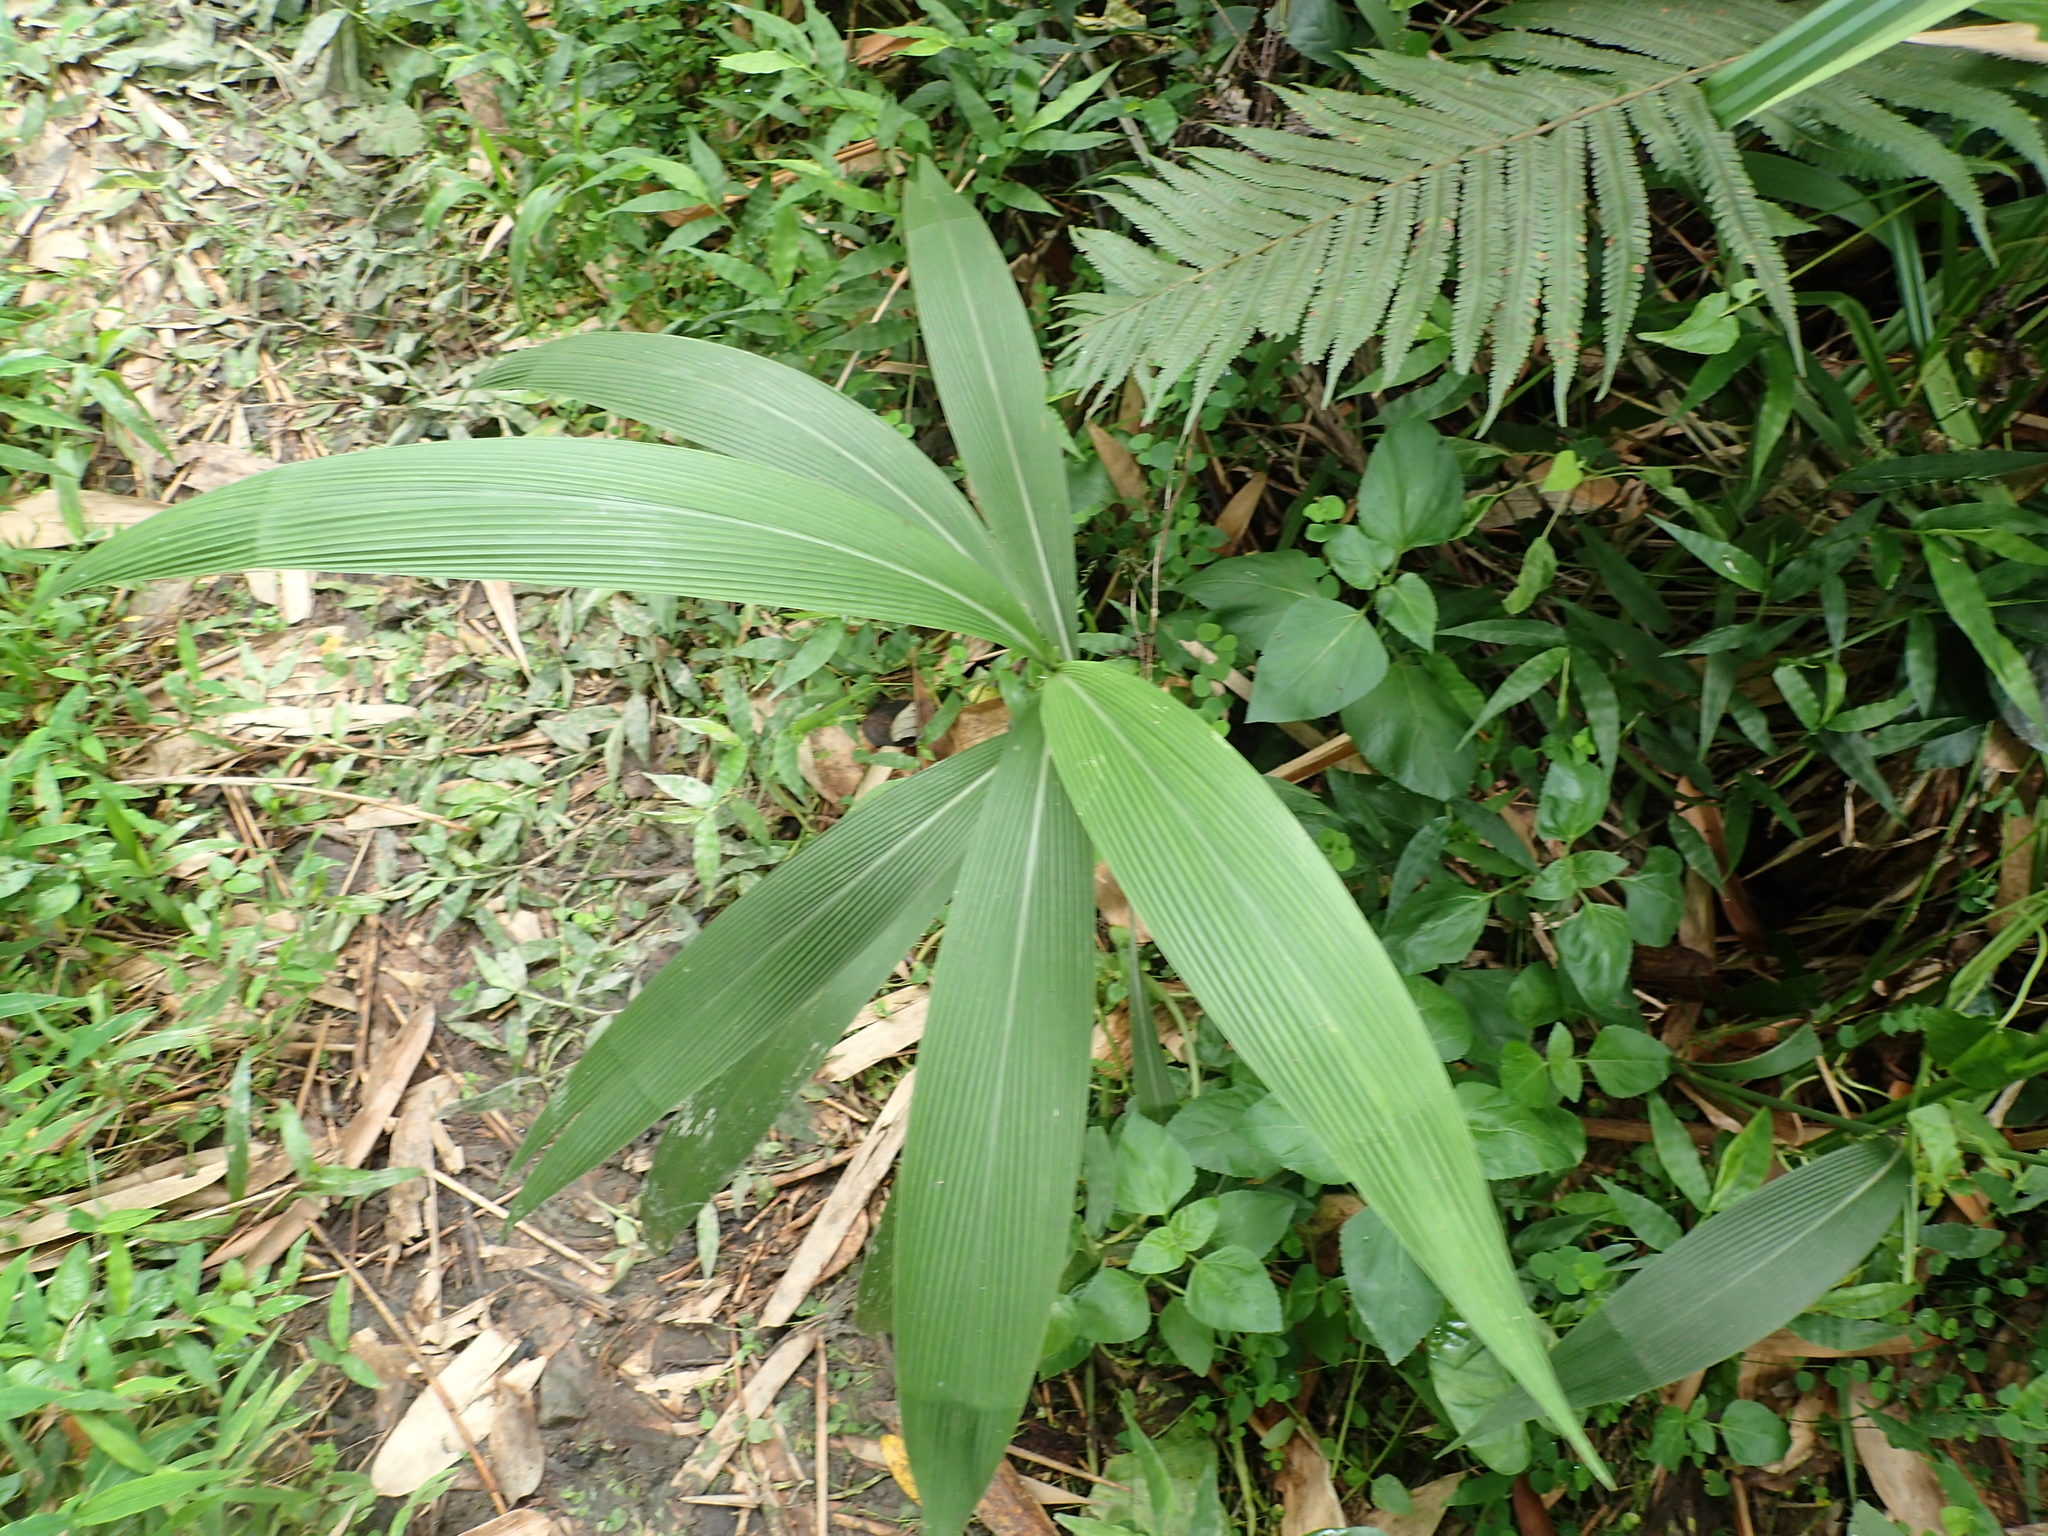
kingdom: Plantae
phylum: Tracheophyta
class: Liliopsida
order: Poales
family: Poaceae
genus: Setaria
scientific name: Setaria palmifolia
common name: Broadleaved bristlegrass
